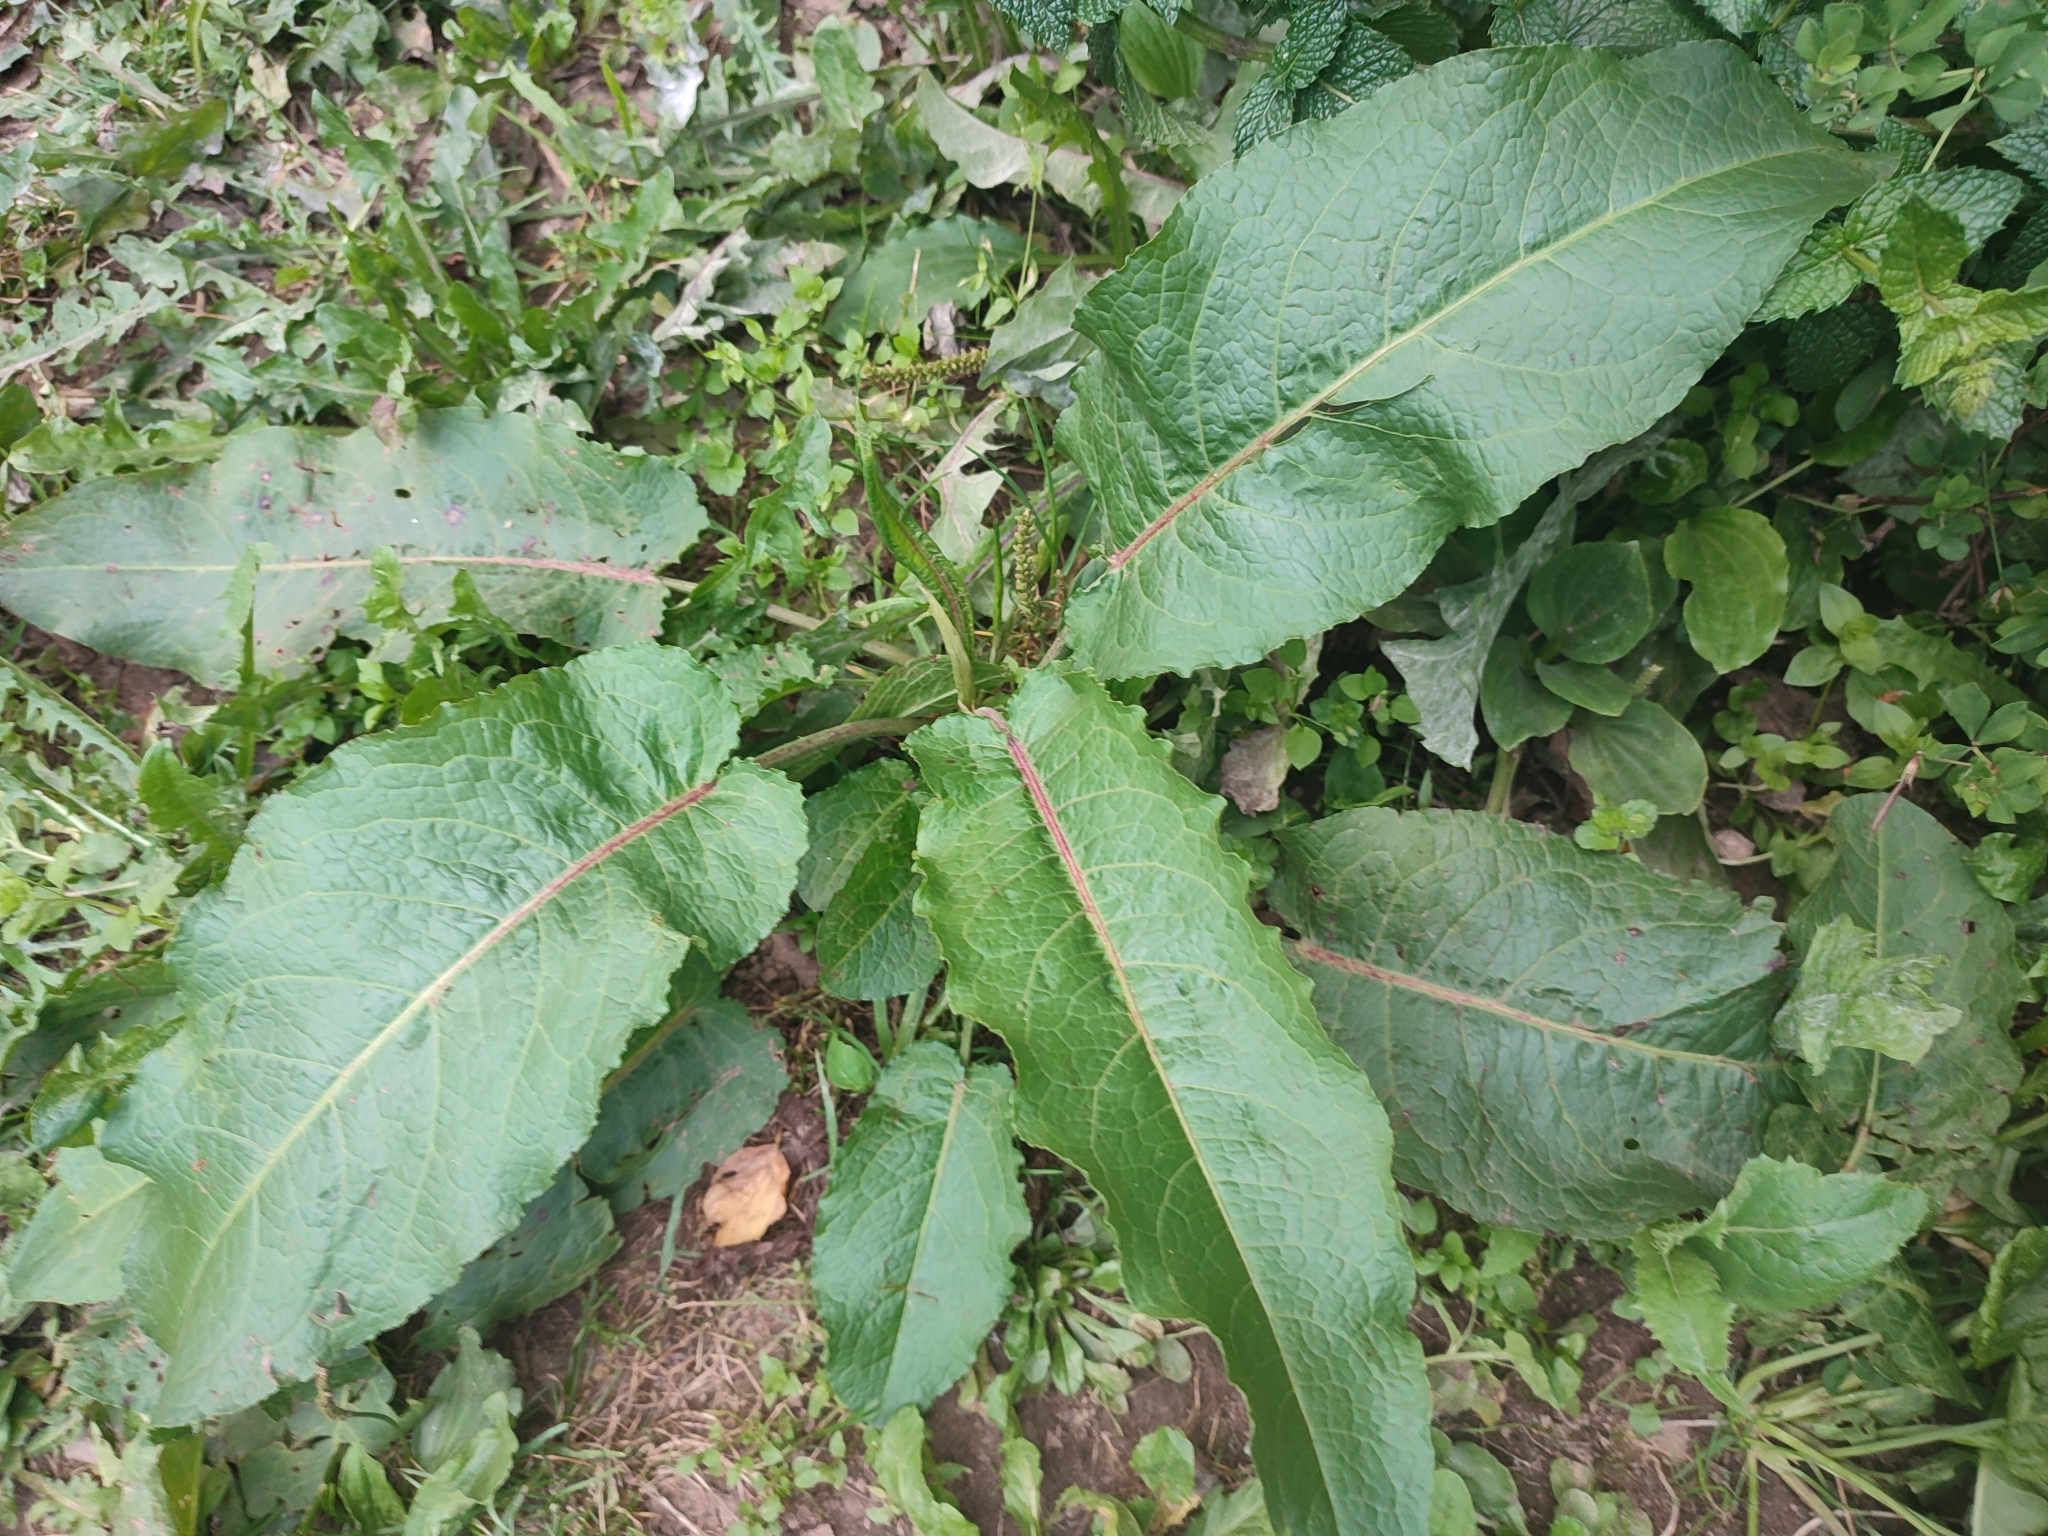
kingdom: Plantae
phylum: Tracheophyta
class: Magnoliopsida
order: Caryophyllales
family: Polygonaceae
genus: Rumex
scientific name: Rumex obtusifolius
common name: Bitter dock
